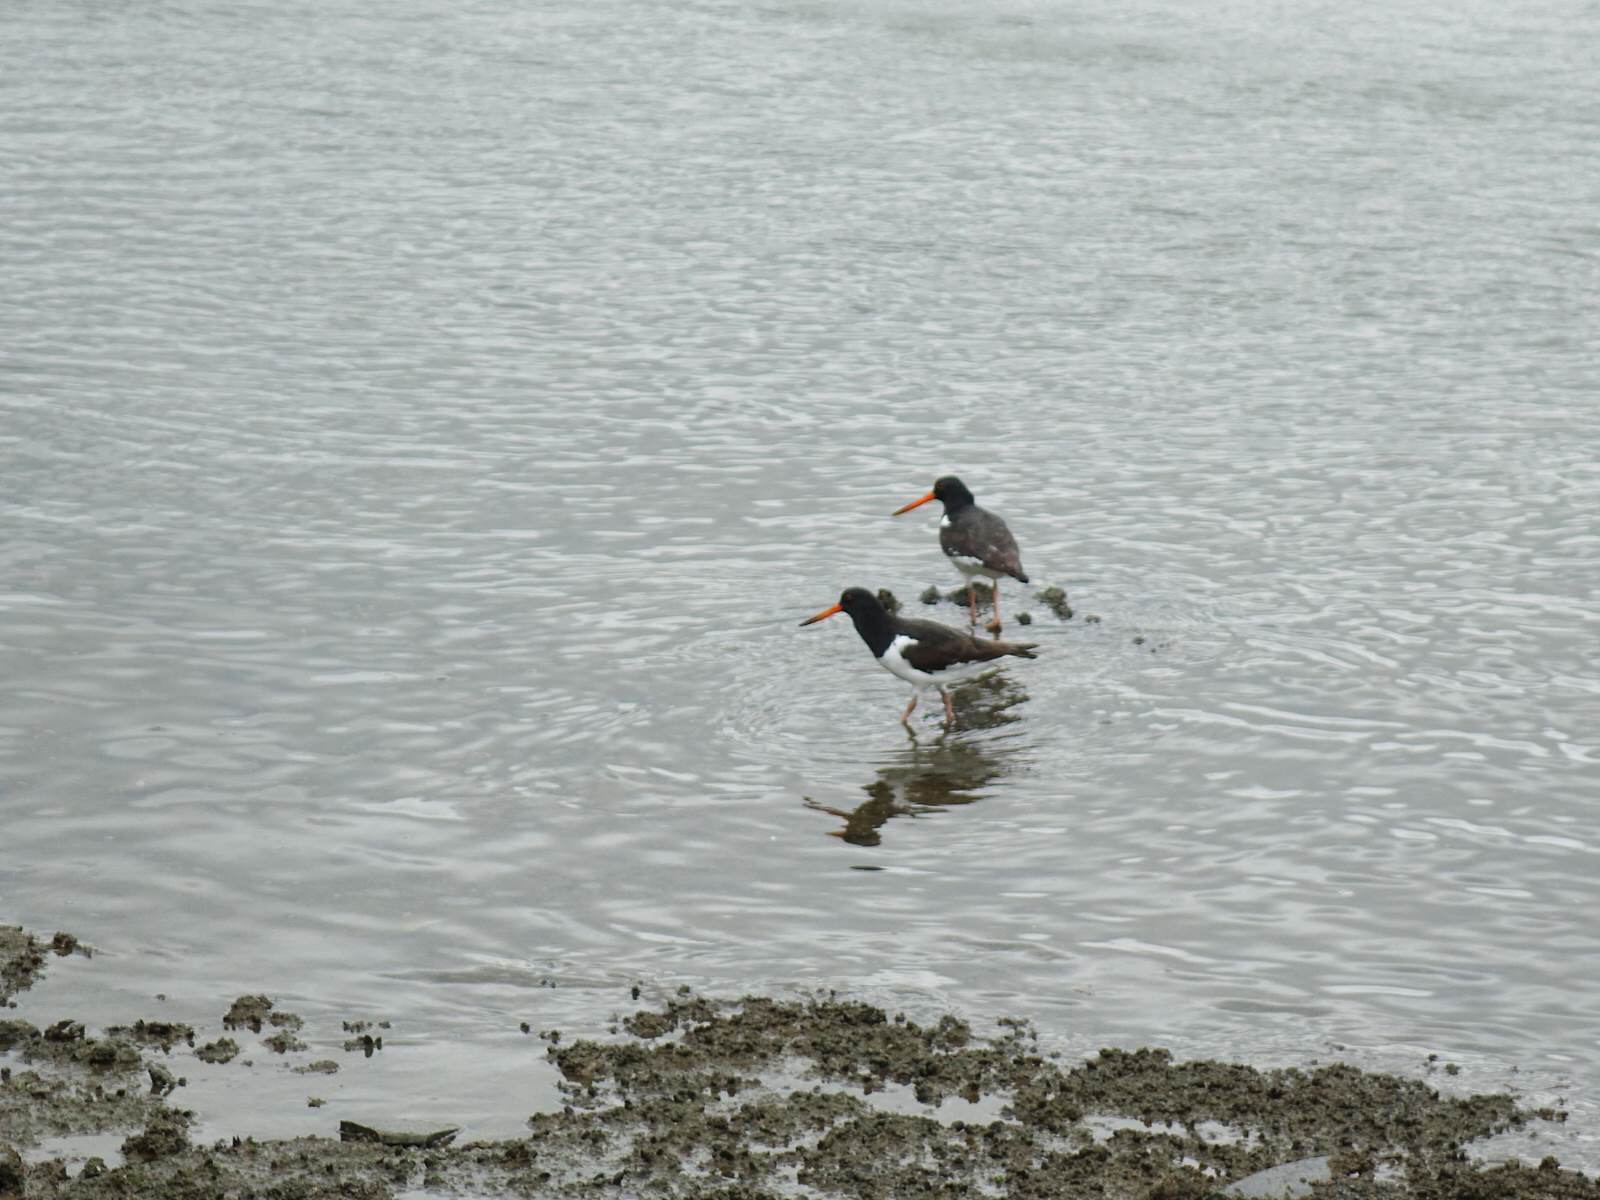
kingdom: Animalia
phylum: Chordata
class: Aves
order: Charadriiformes
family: Haematopodidae
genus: Haematopus
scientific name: Haematopus finschi
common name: South island oystercatcher
